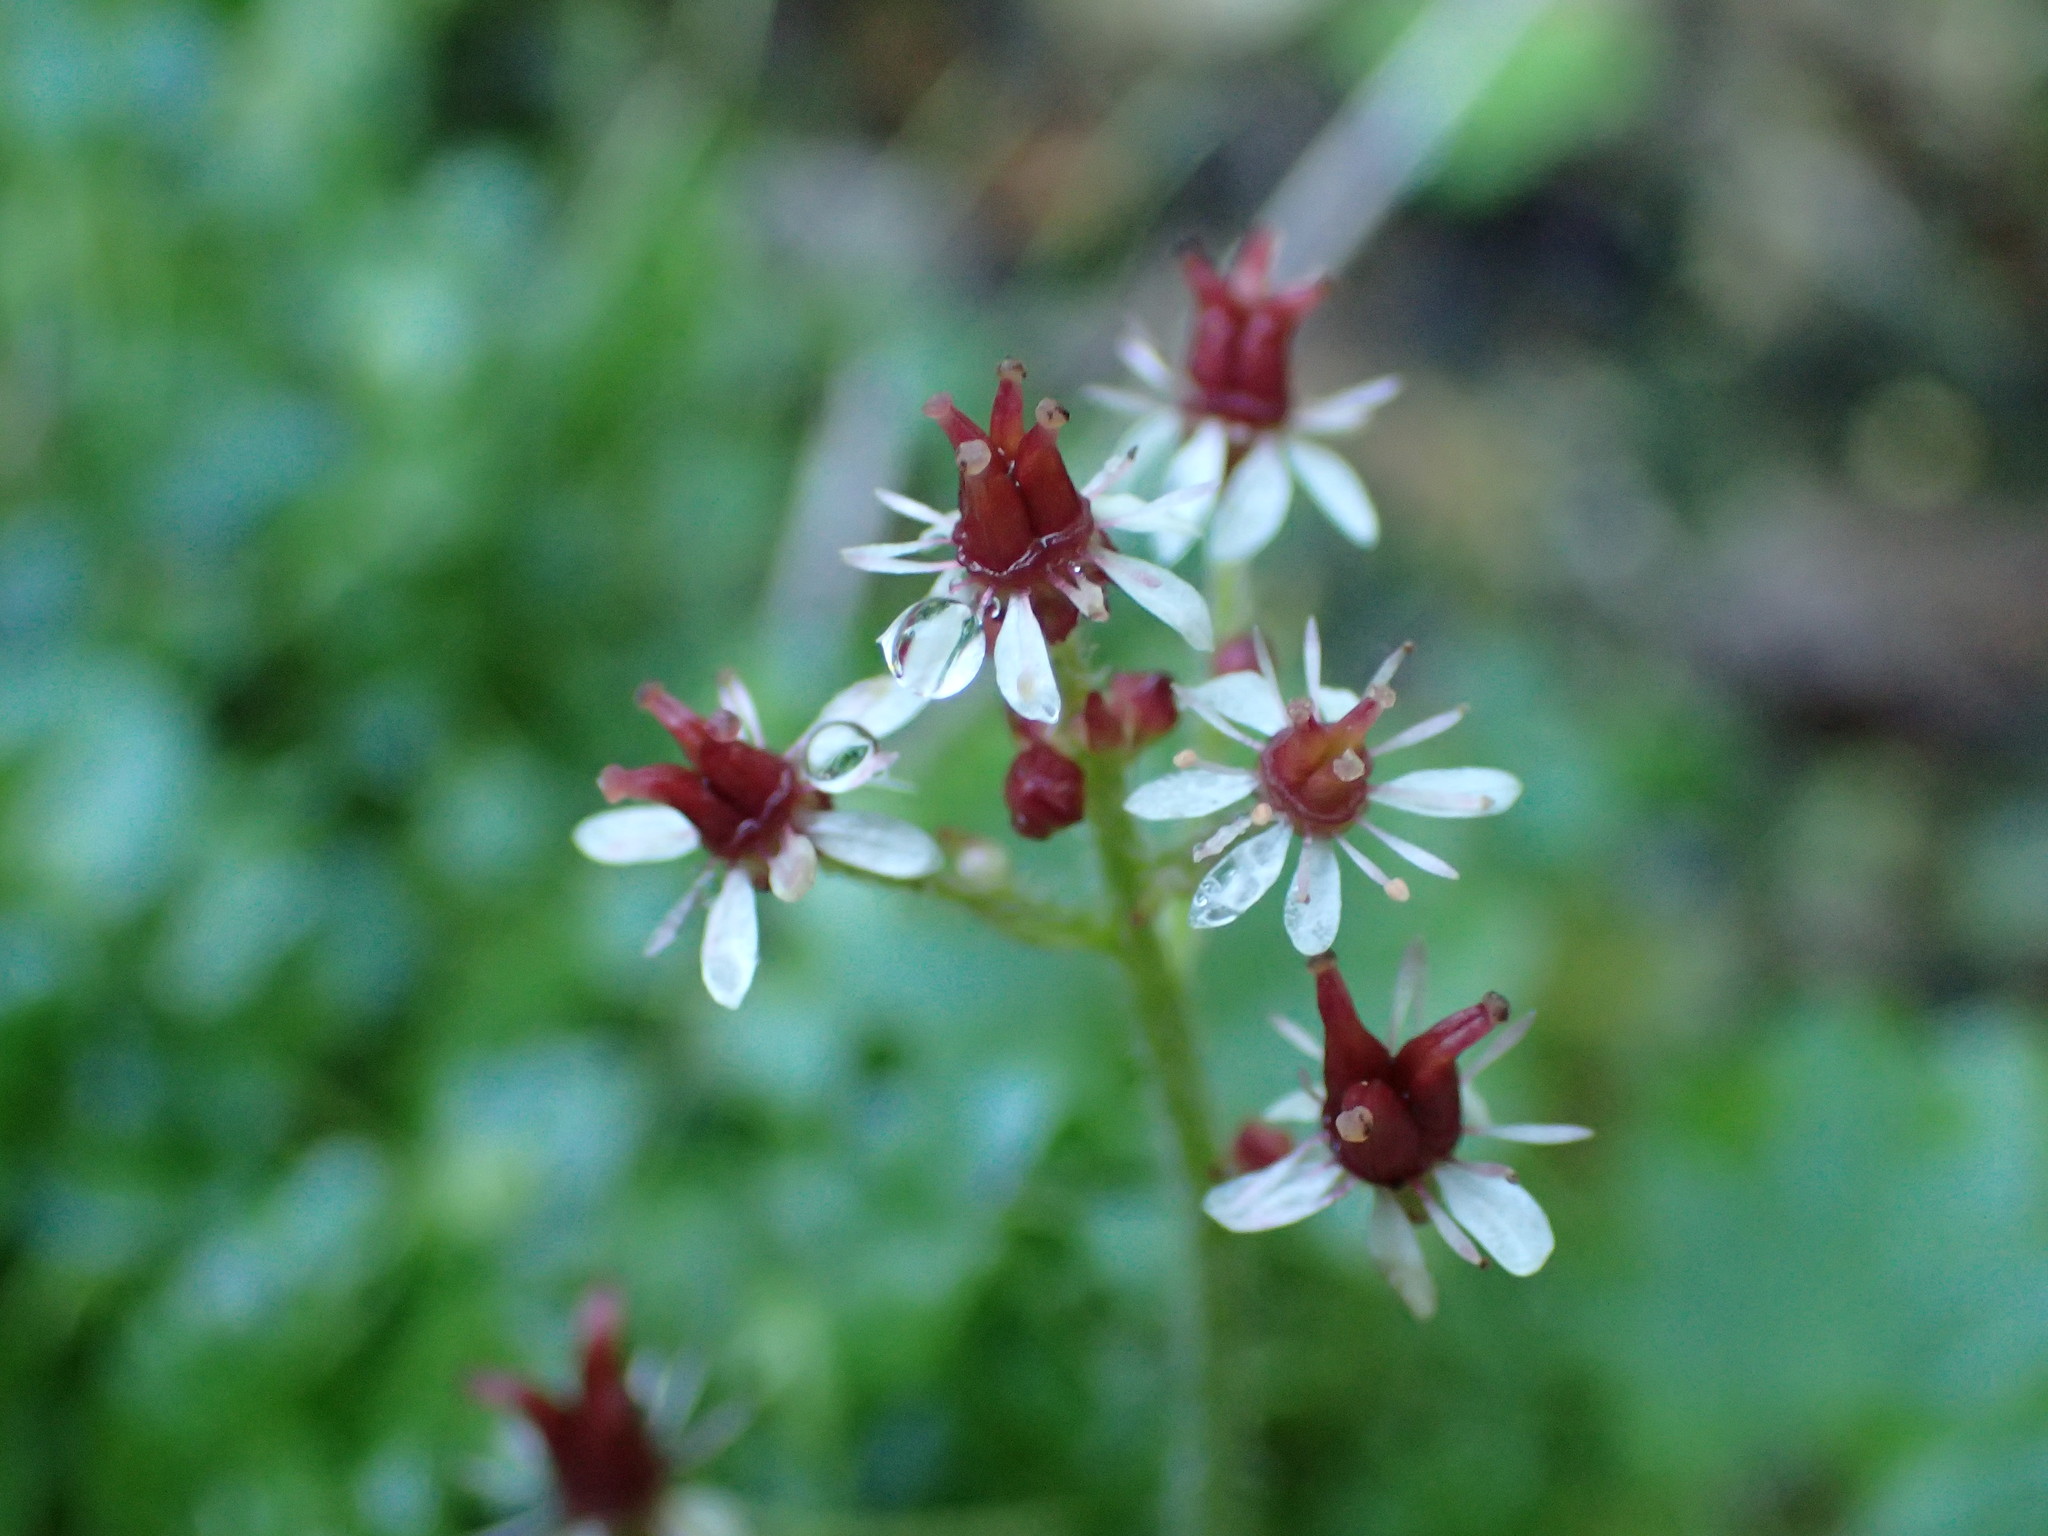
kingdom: Plantae
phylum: Tracheophyta
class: Magnoliopsida
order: Saxifragales
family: Saxifragaceae
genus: Micranthes
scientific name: Micranthes nelsoniana
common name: Nelson's saxifrage
